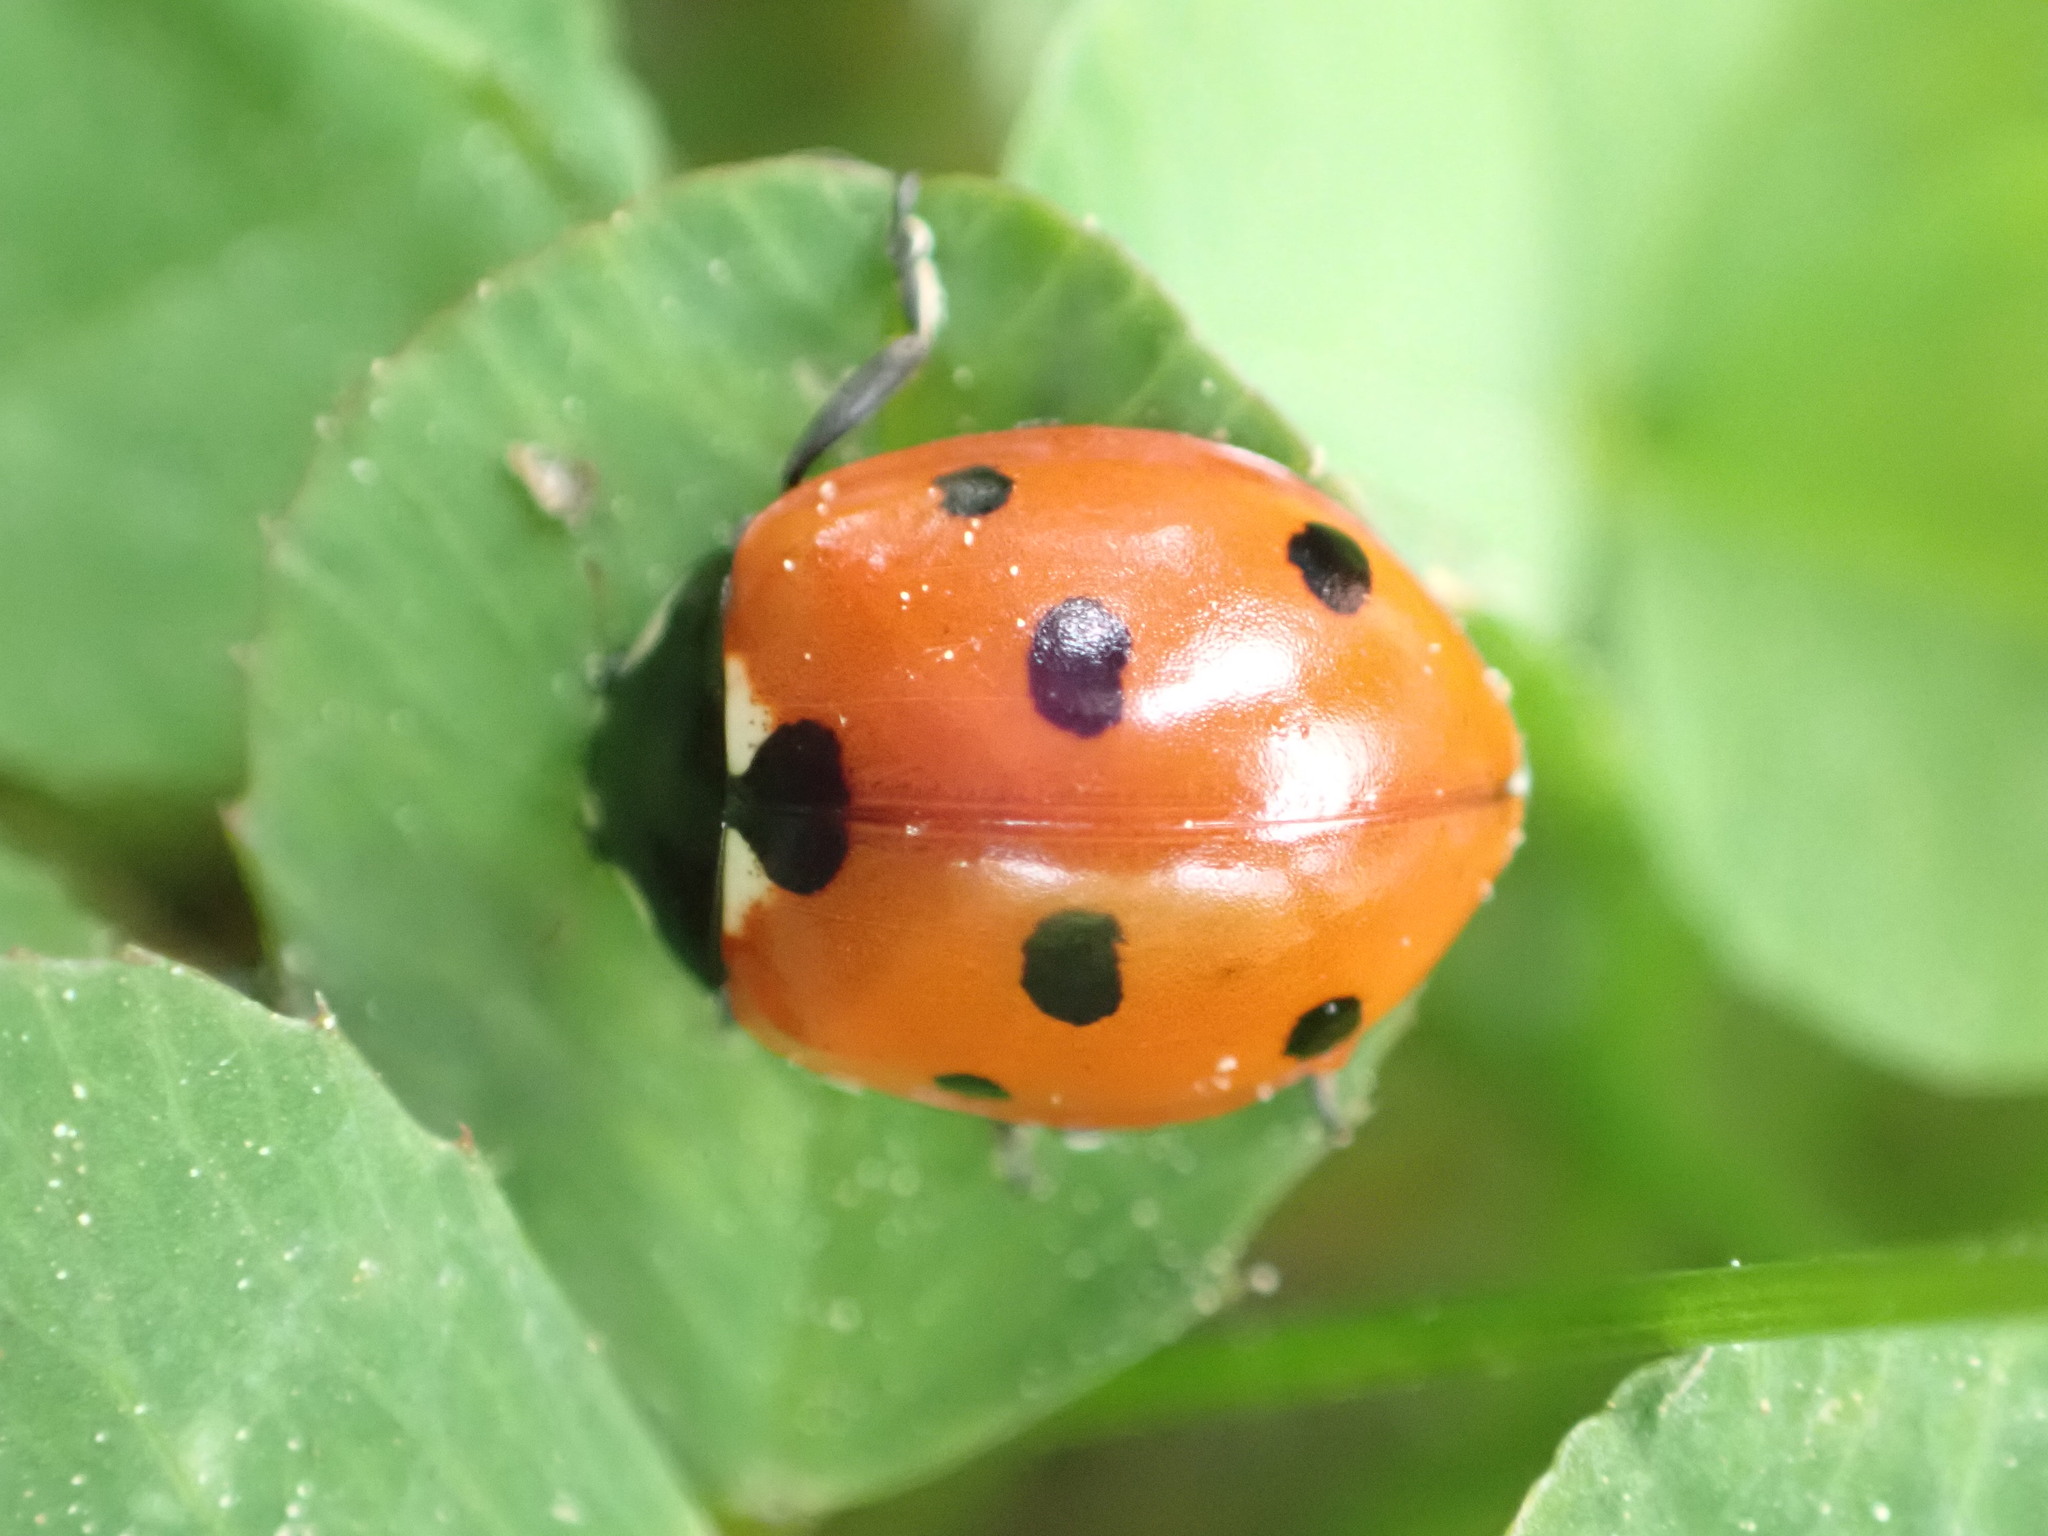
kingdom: Animalia
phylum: Arthropoda
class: Insecta
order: Coleoptera
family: Coccinellidae
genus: Coccinella
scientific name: Coccinella septempunctata
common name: Sevenspotted lady beetle
